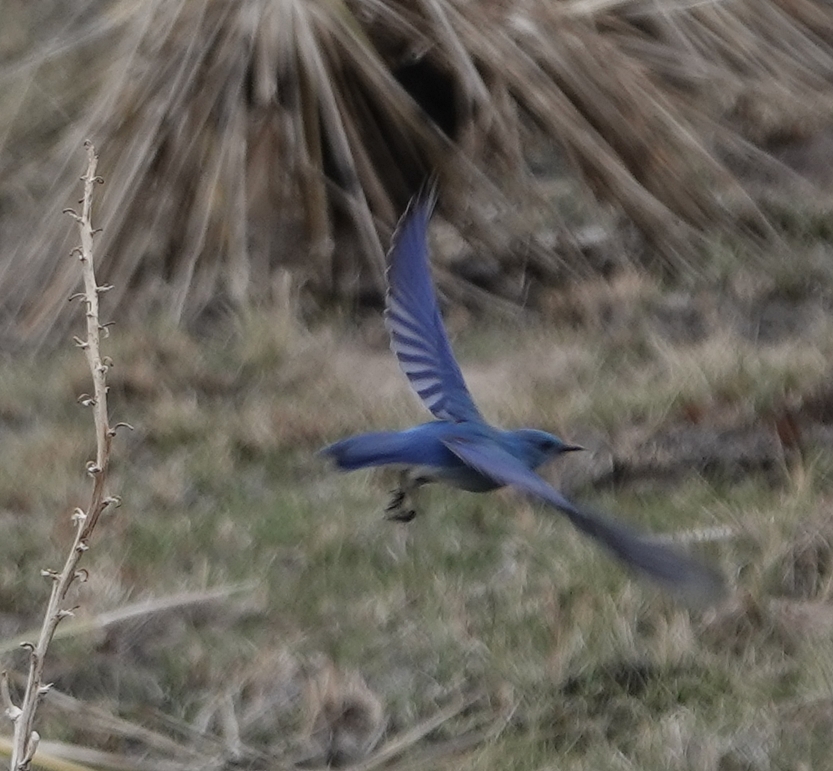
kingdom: Animalia
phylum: Chordata
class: Aves
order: Passeriformes
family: Turdidae
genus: Sialia
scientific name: Sialia currucoides
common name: Mountain bluebird
